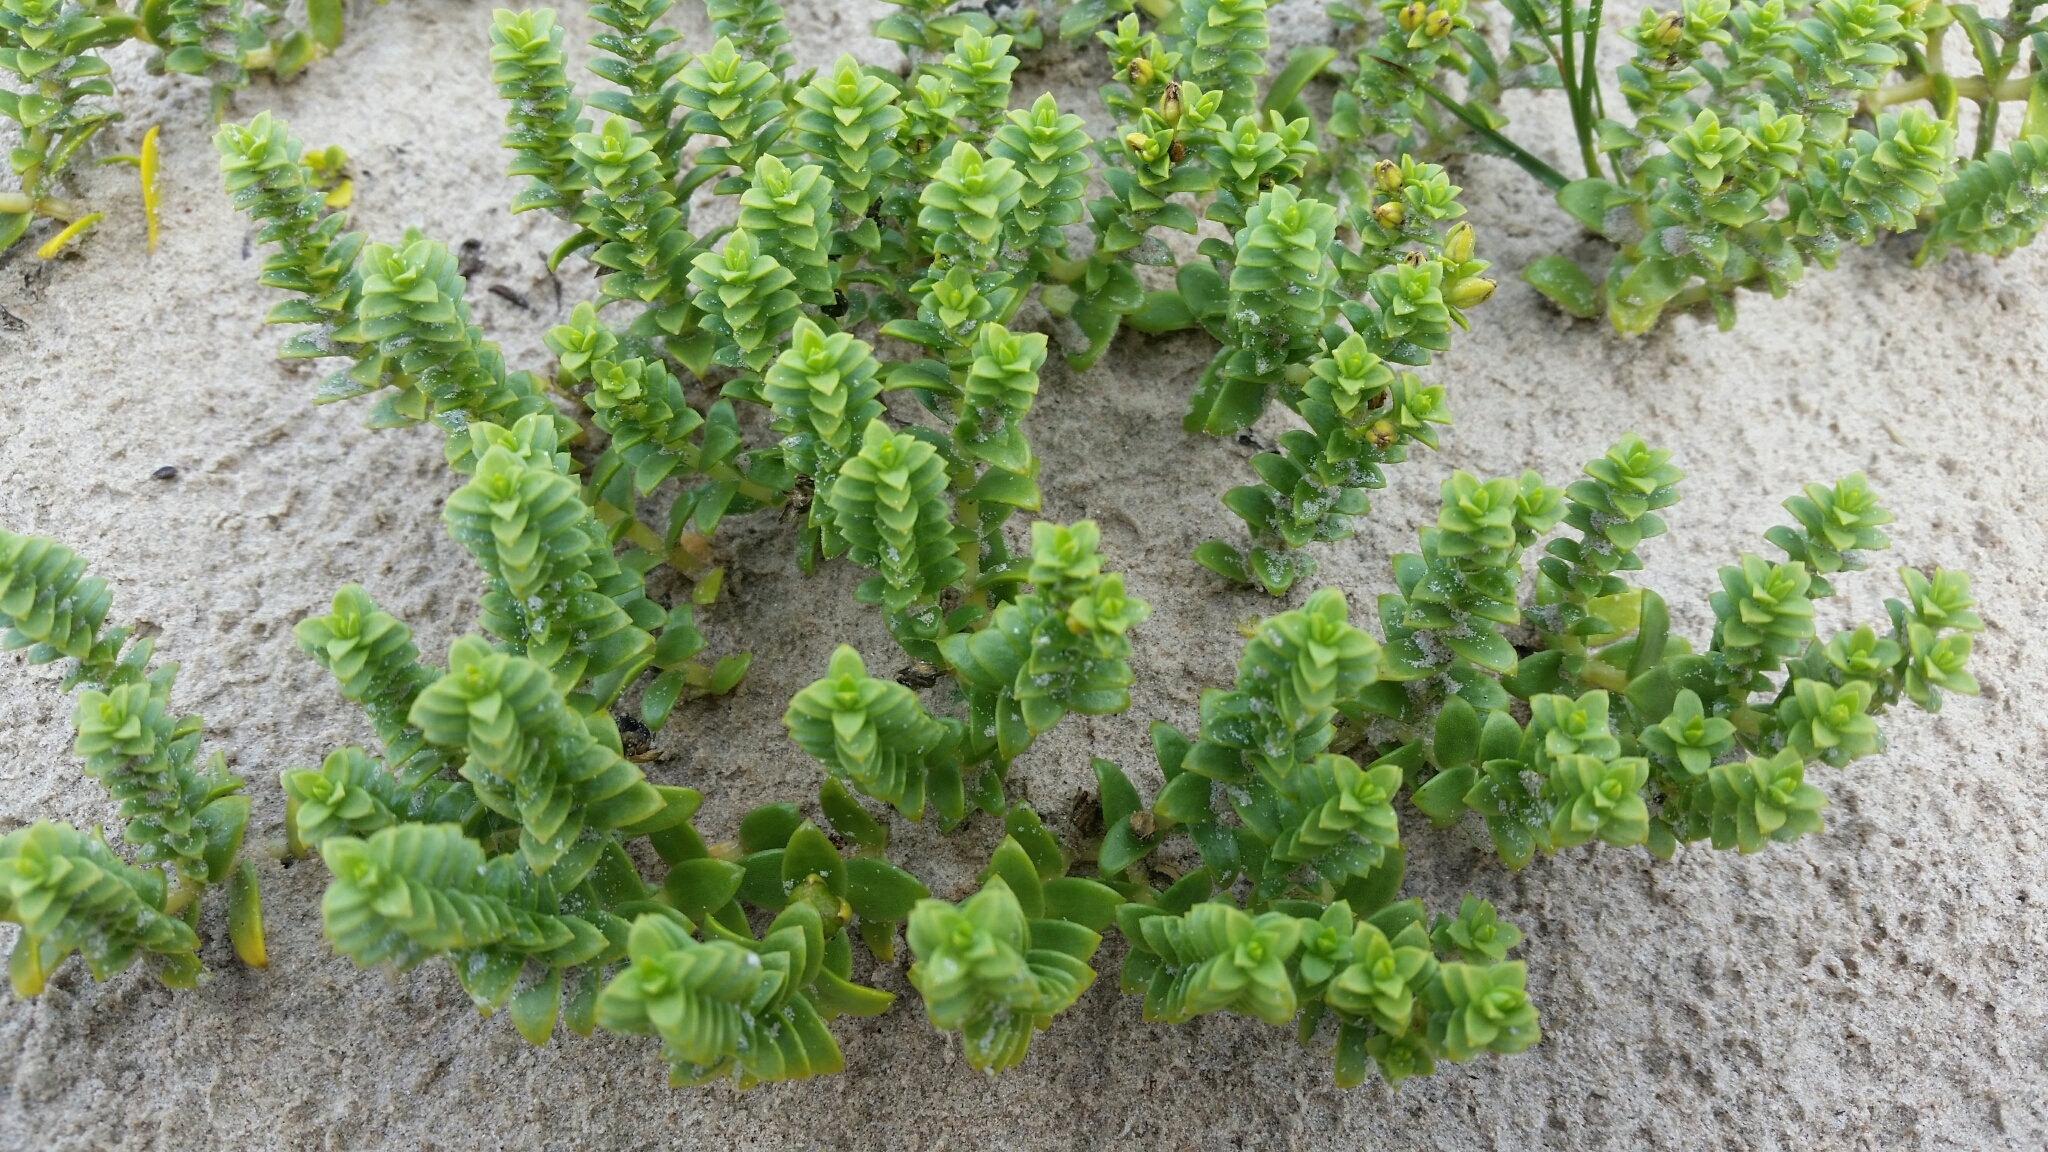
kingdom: Plantae
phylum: Tracheophyta
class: Magnoliopsida
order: Caryophyllales
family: Caryophyllaceae
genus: Honckenya
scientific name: Honckenya peploides
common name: Sea sandwort
